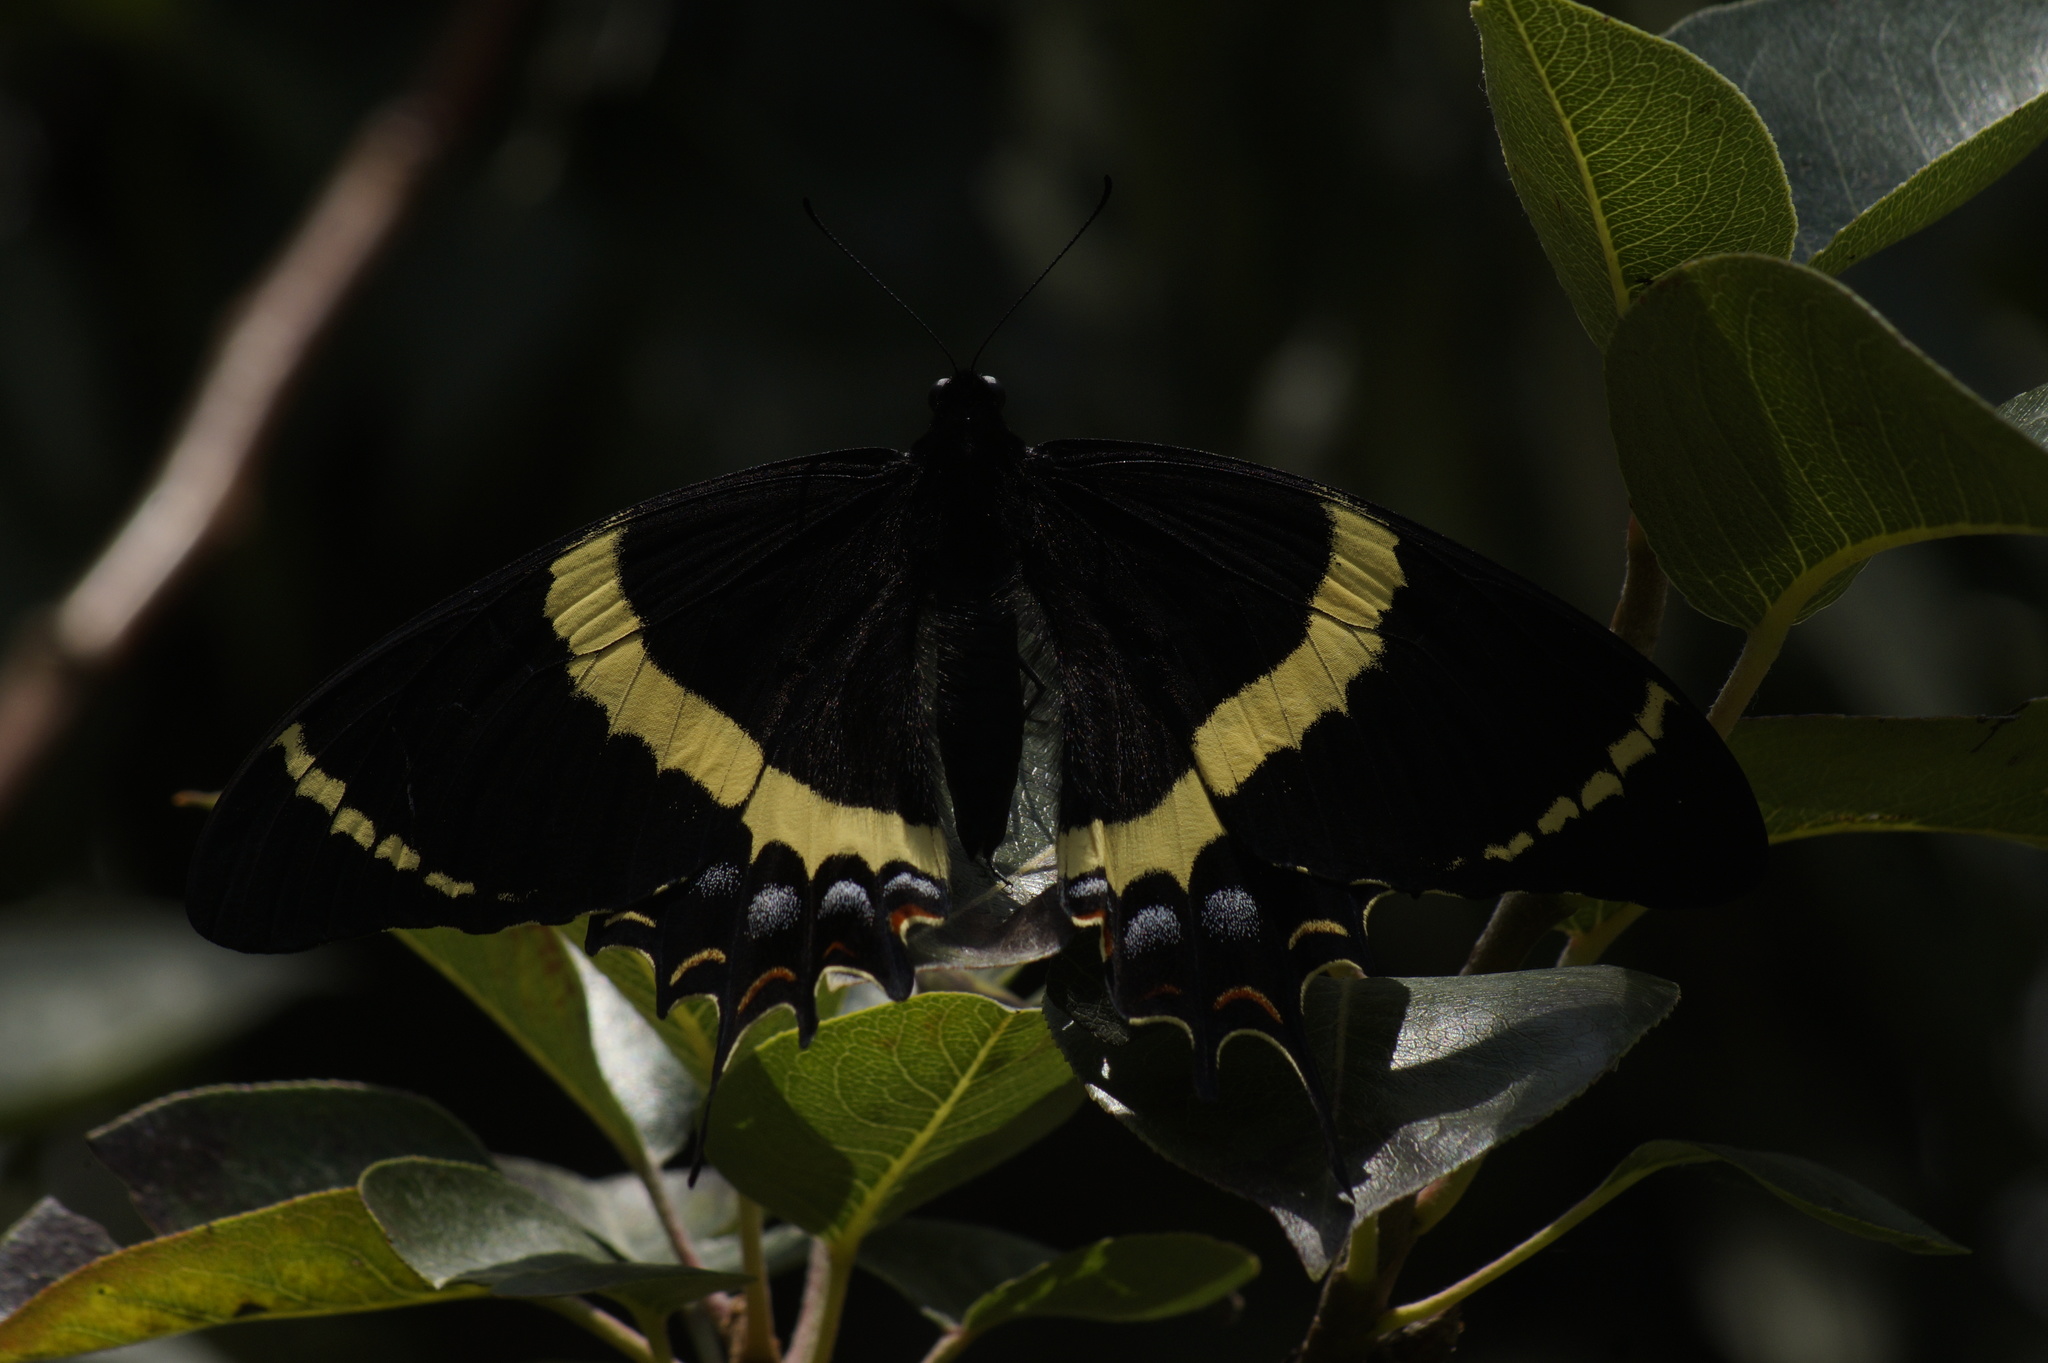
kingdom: Animalia
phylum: Arthropoda
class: Insecta
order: Lepidoptera
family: Papilionidae
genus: Papilio
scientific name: Papilio garamas
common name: Magnificent swallowtail
